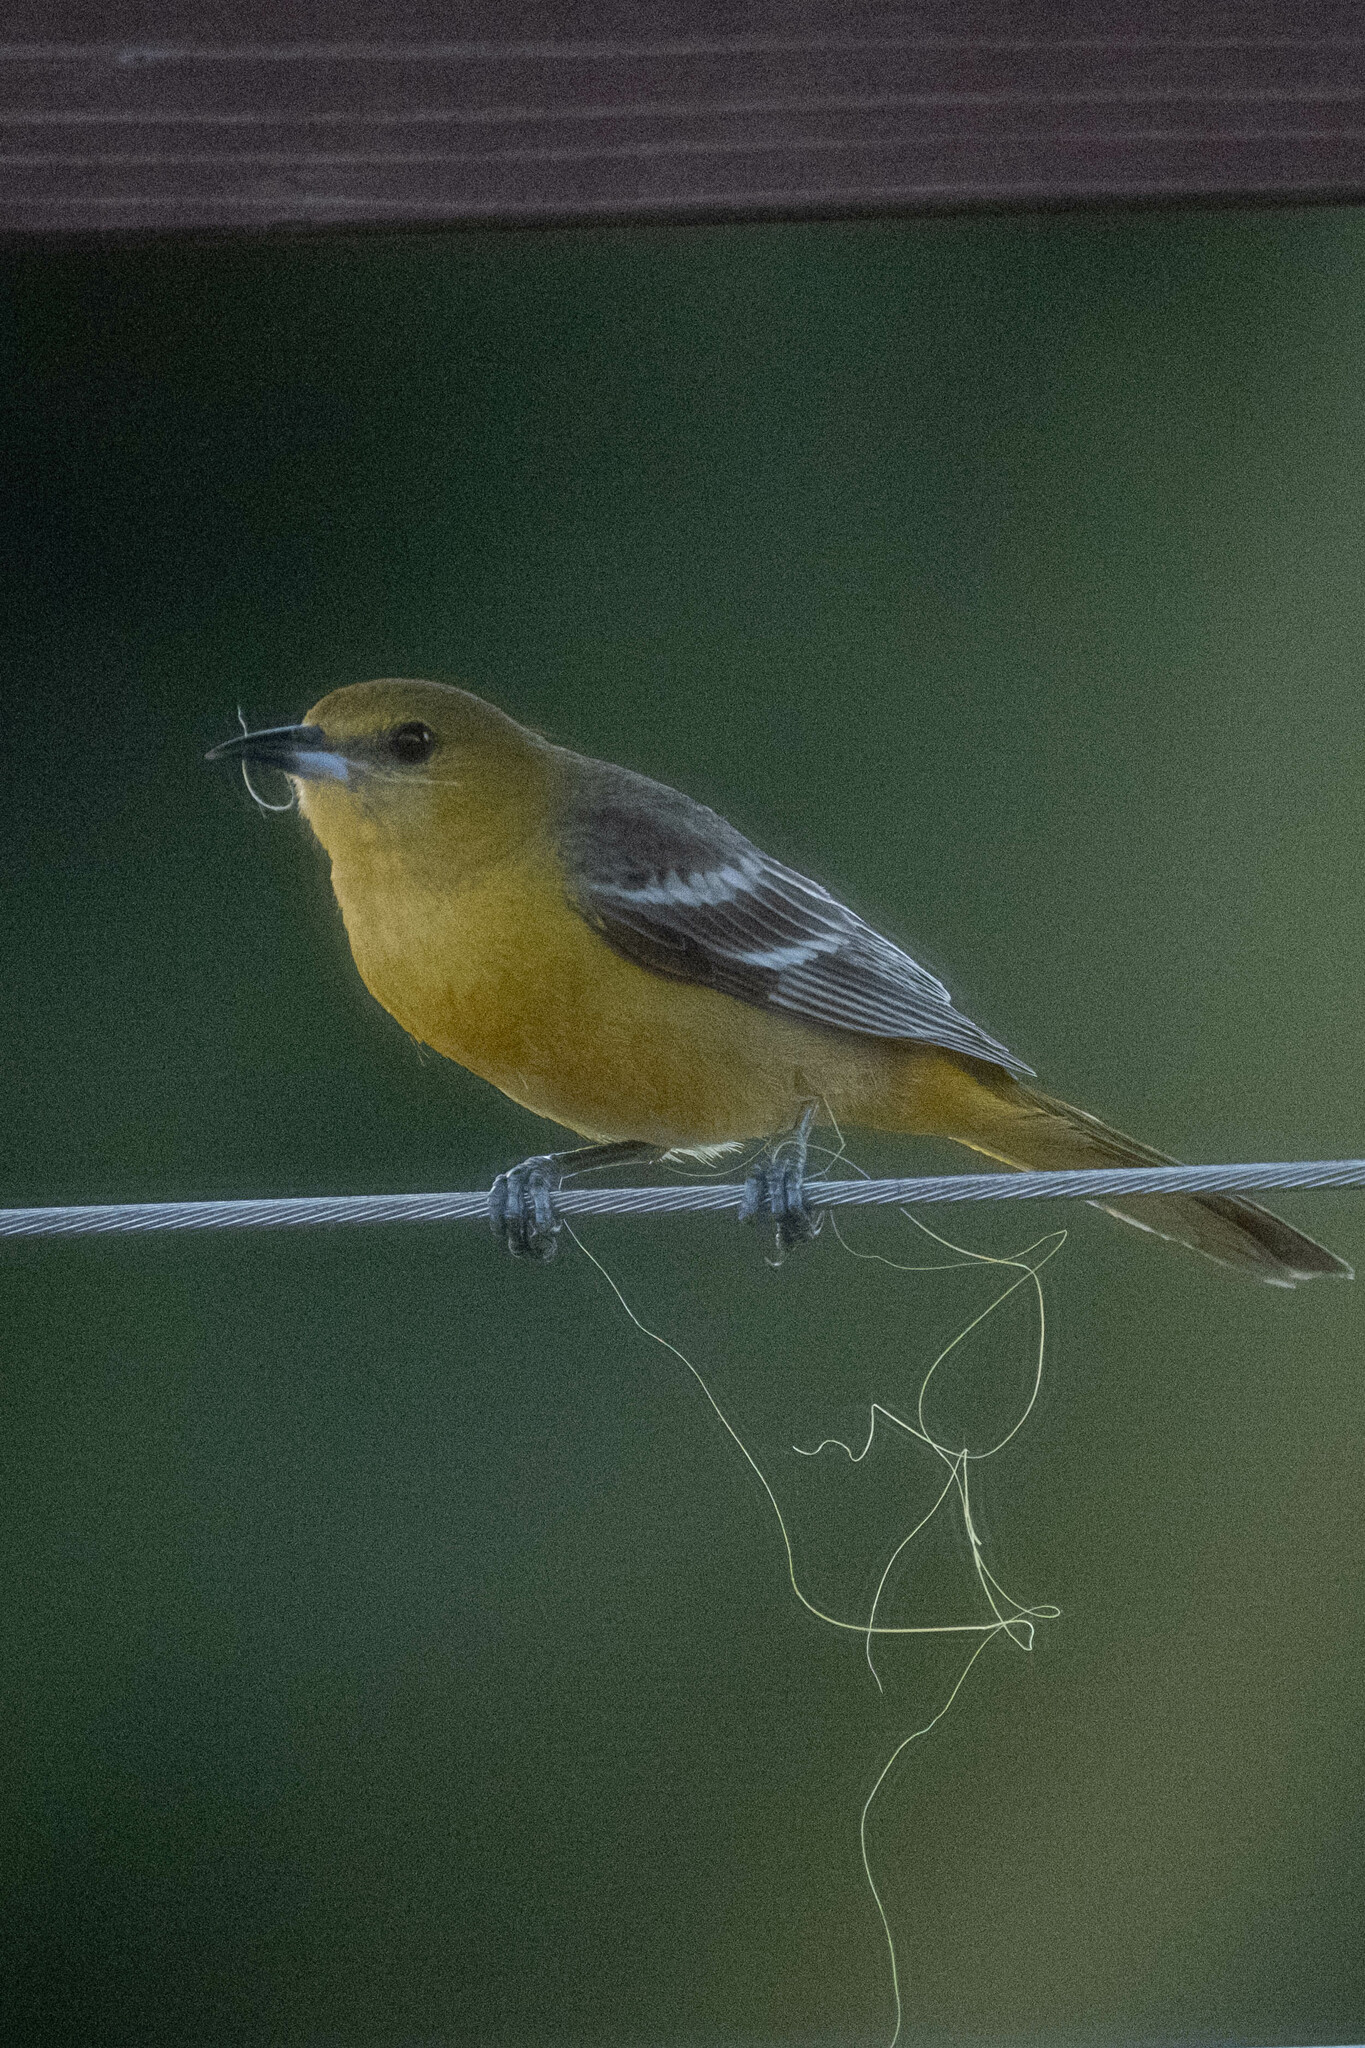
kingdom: Animalia
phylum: Chordata
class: Aves
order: Passeriformes
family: Icteridae
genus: Icterus
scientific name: Icterus cucullatus
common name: Hooded oriole
